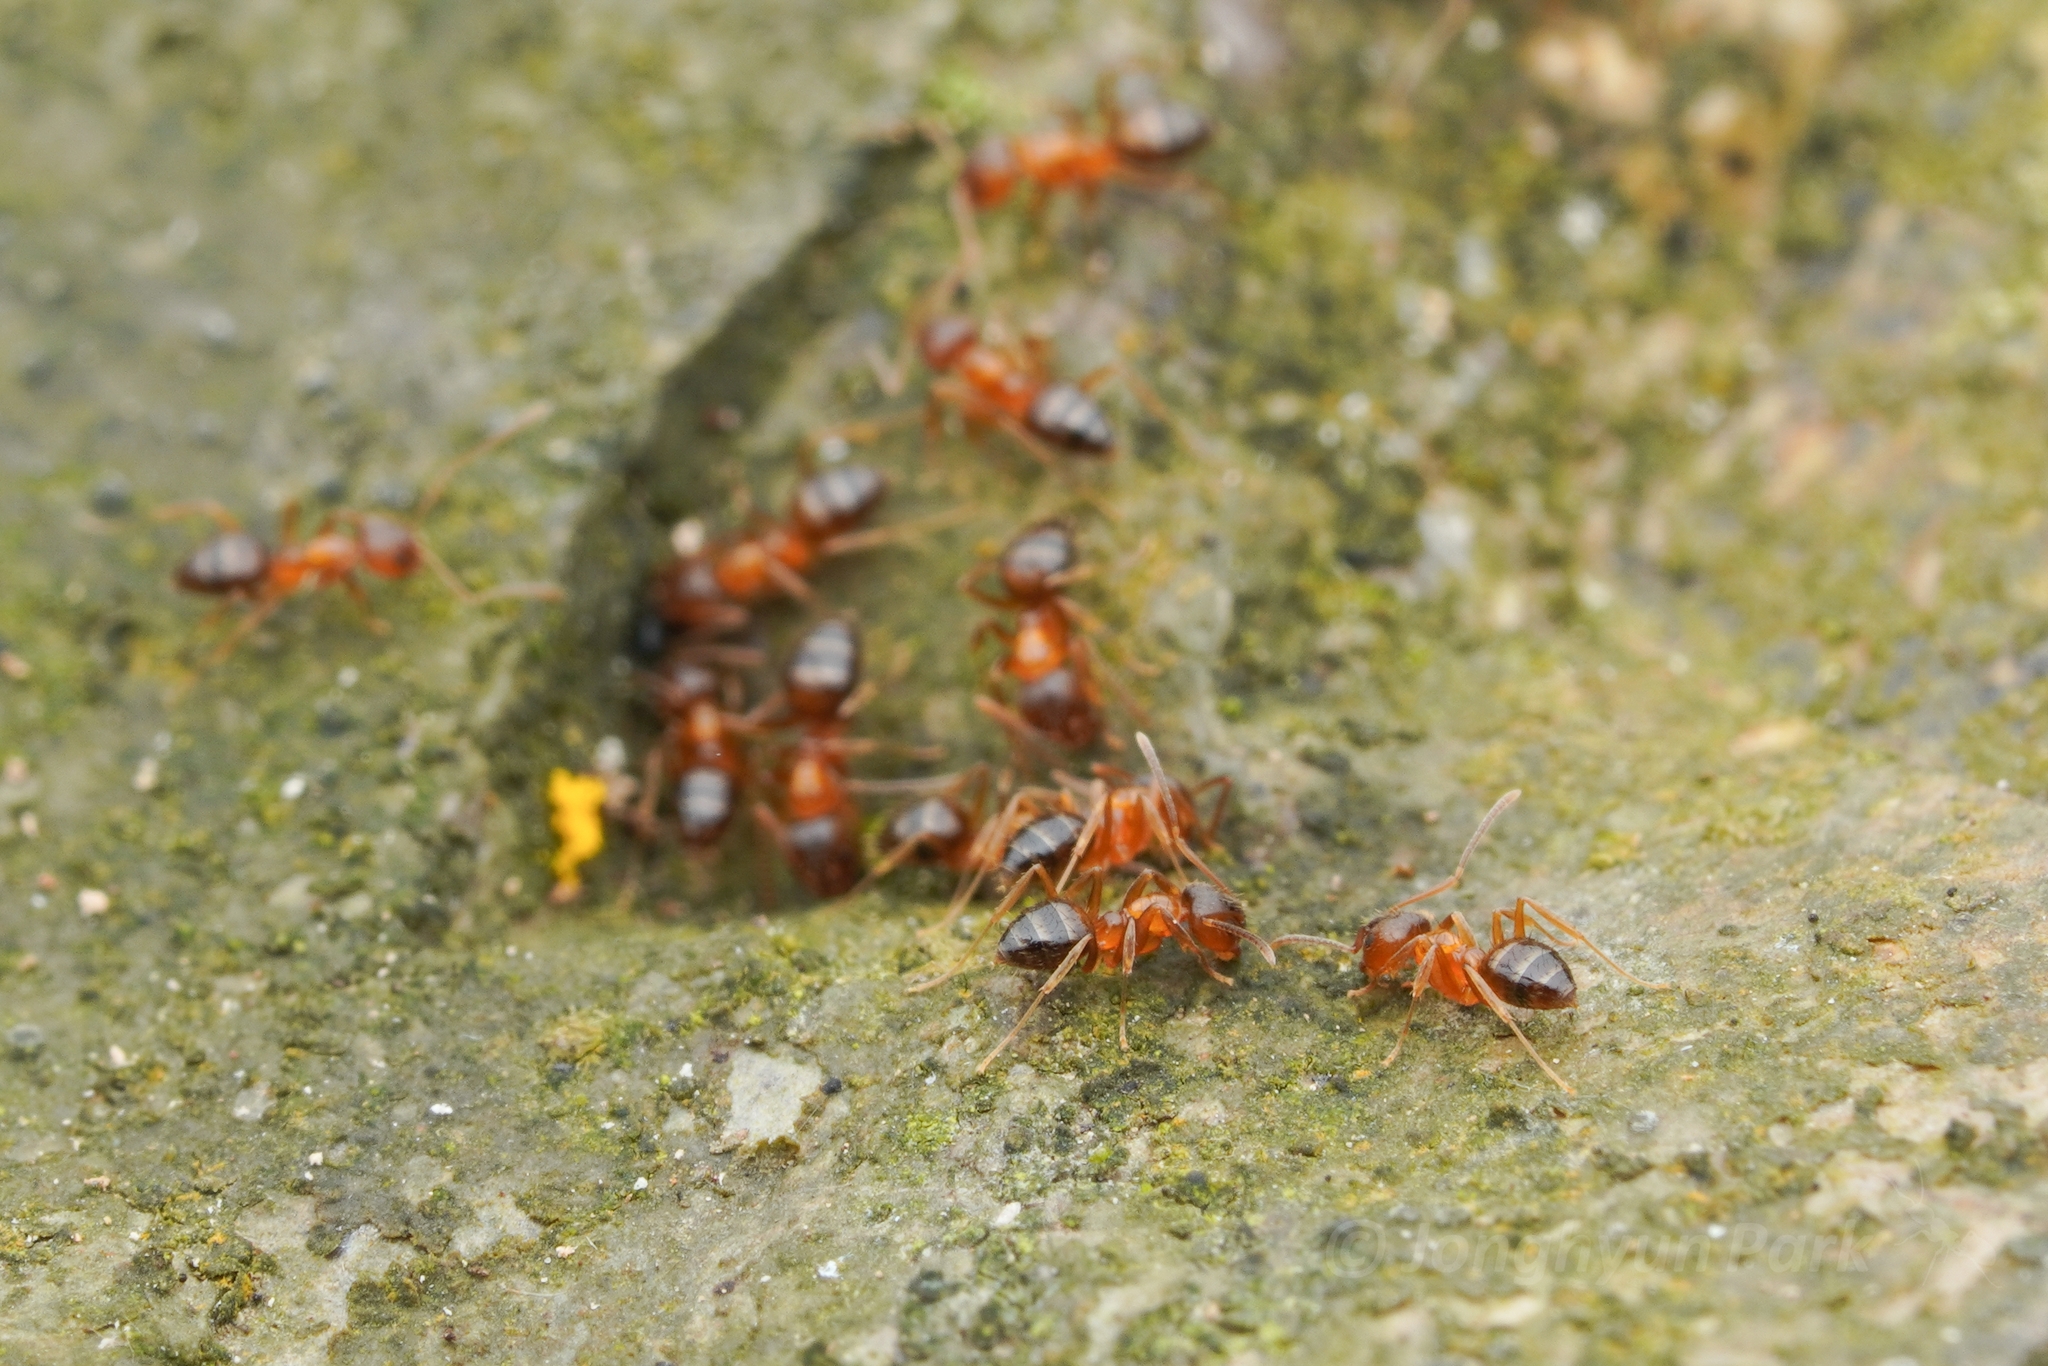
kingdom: Animalia
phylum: Arthropoda
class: Insecta
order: Hymenoptera
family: Formicidae
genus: Paratrechina
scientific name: Paratrechina flavipes
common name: Eastern asian formicine ant
